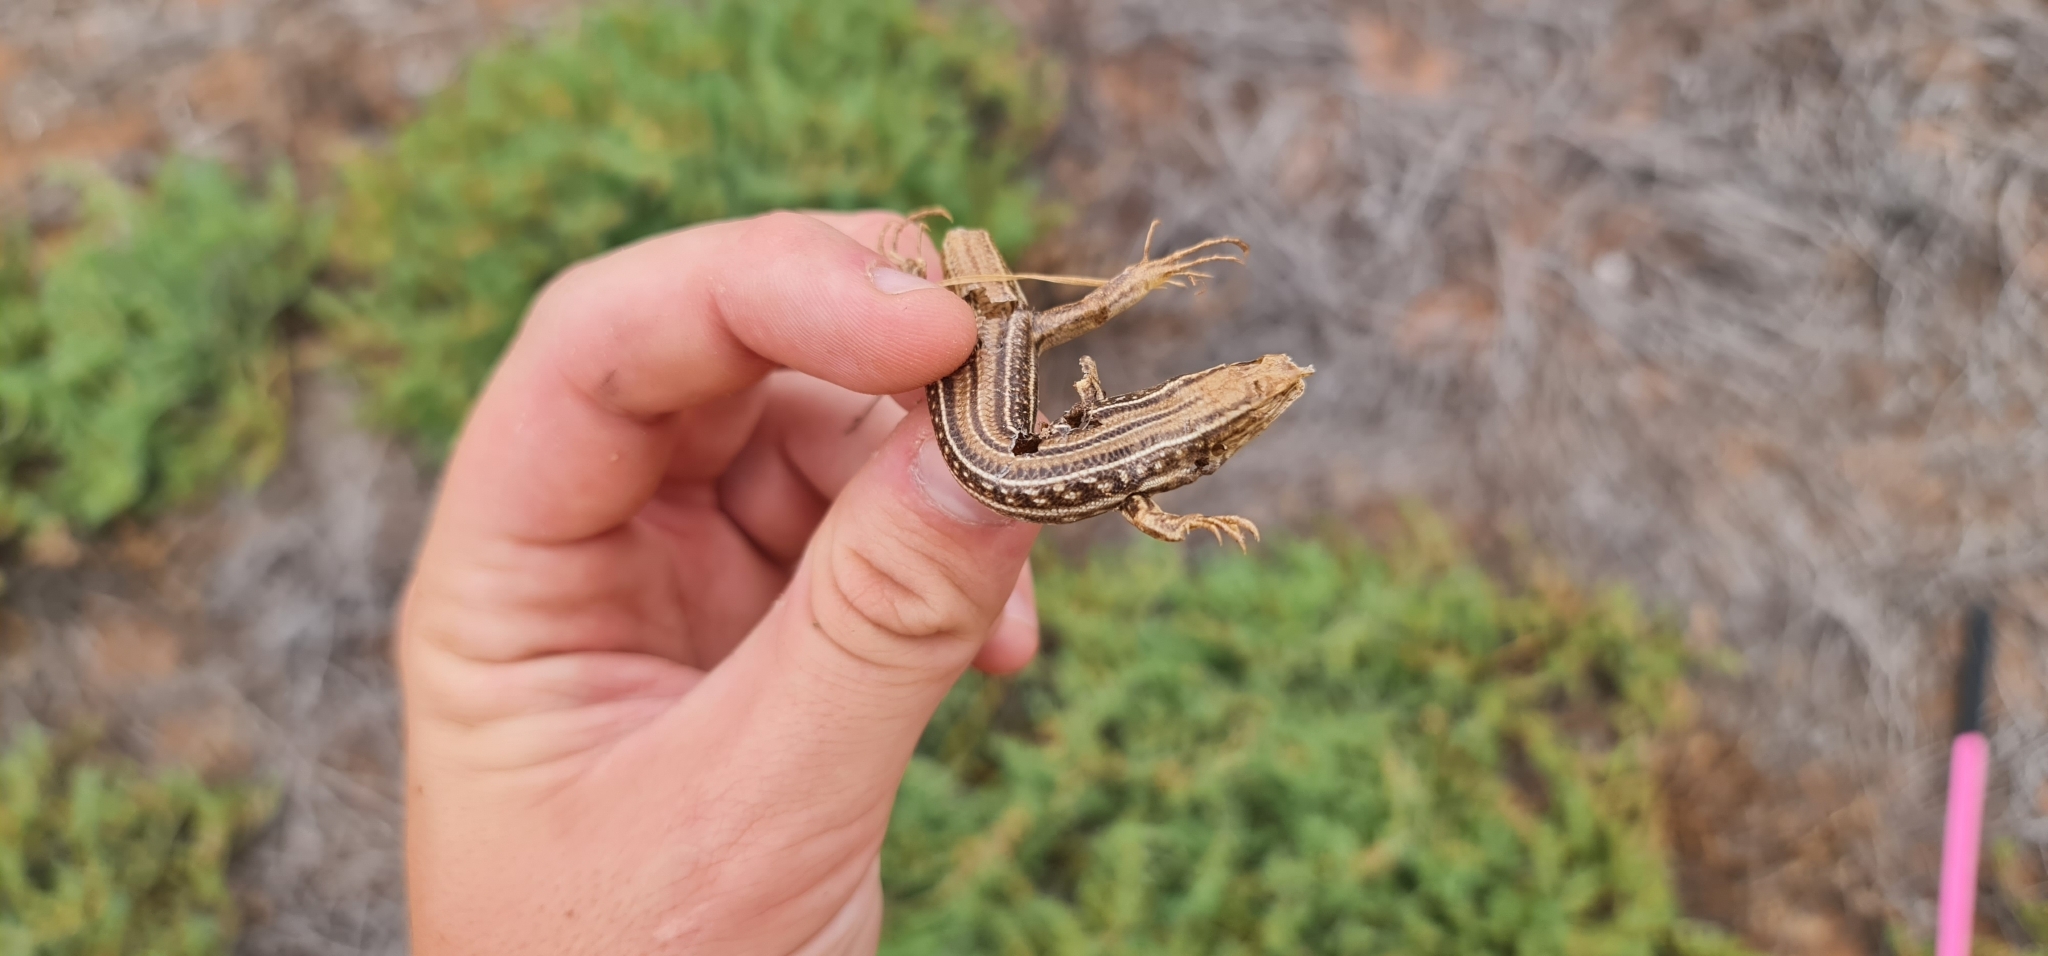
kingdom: Animalia
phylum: Chordata
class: Squamata
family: Scincidae
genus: Ctenotus
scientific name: Ctenotus regius
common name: Pale-rumped ctenotus
